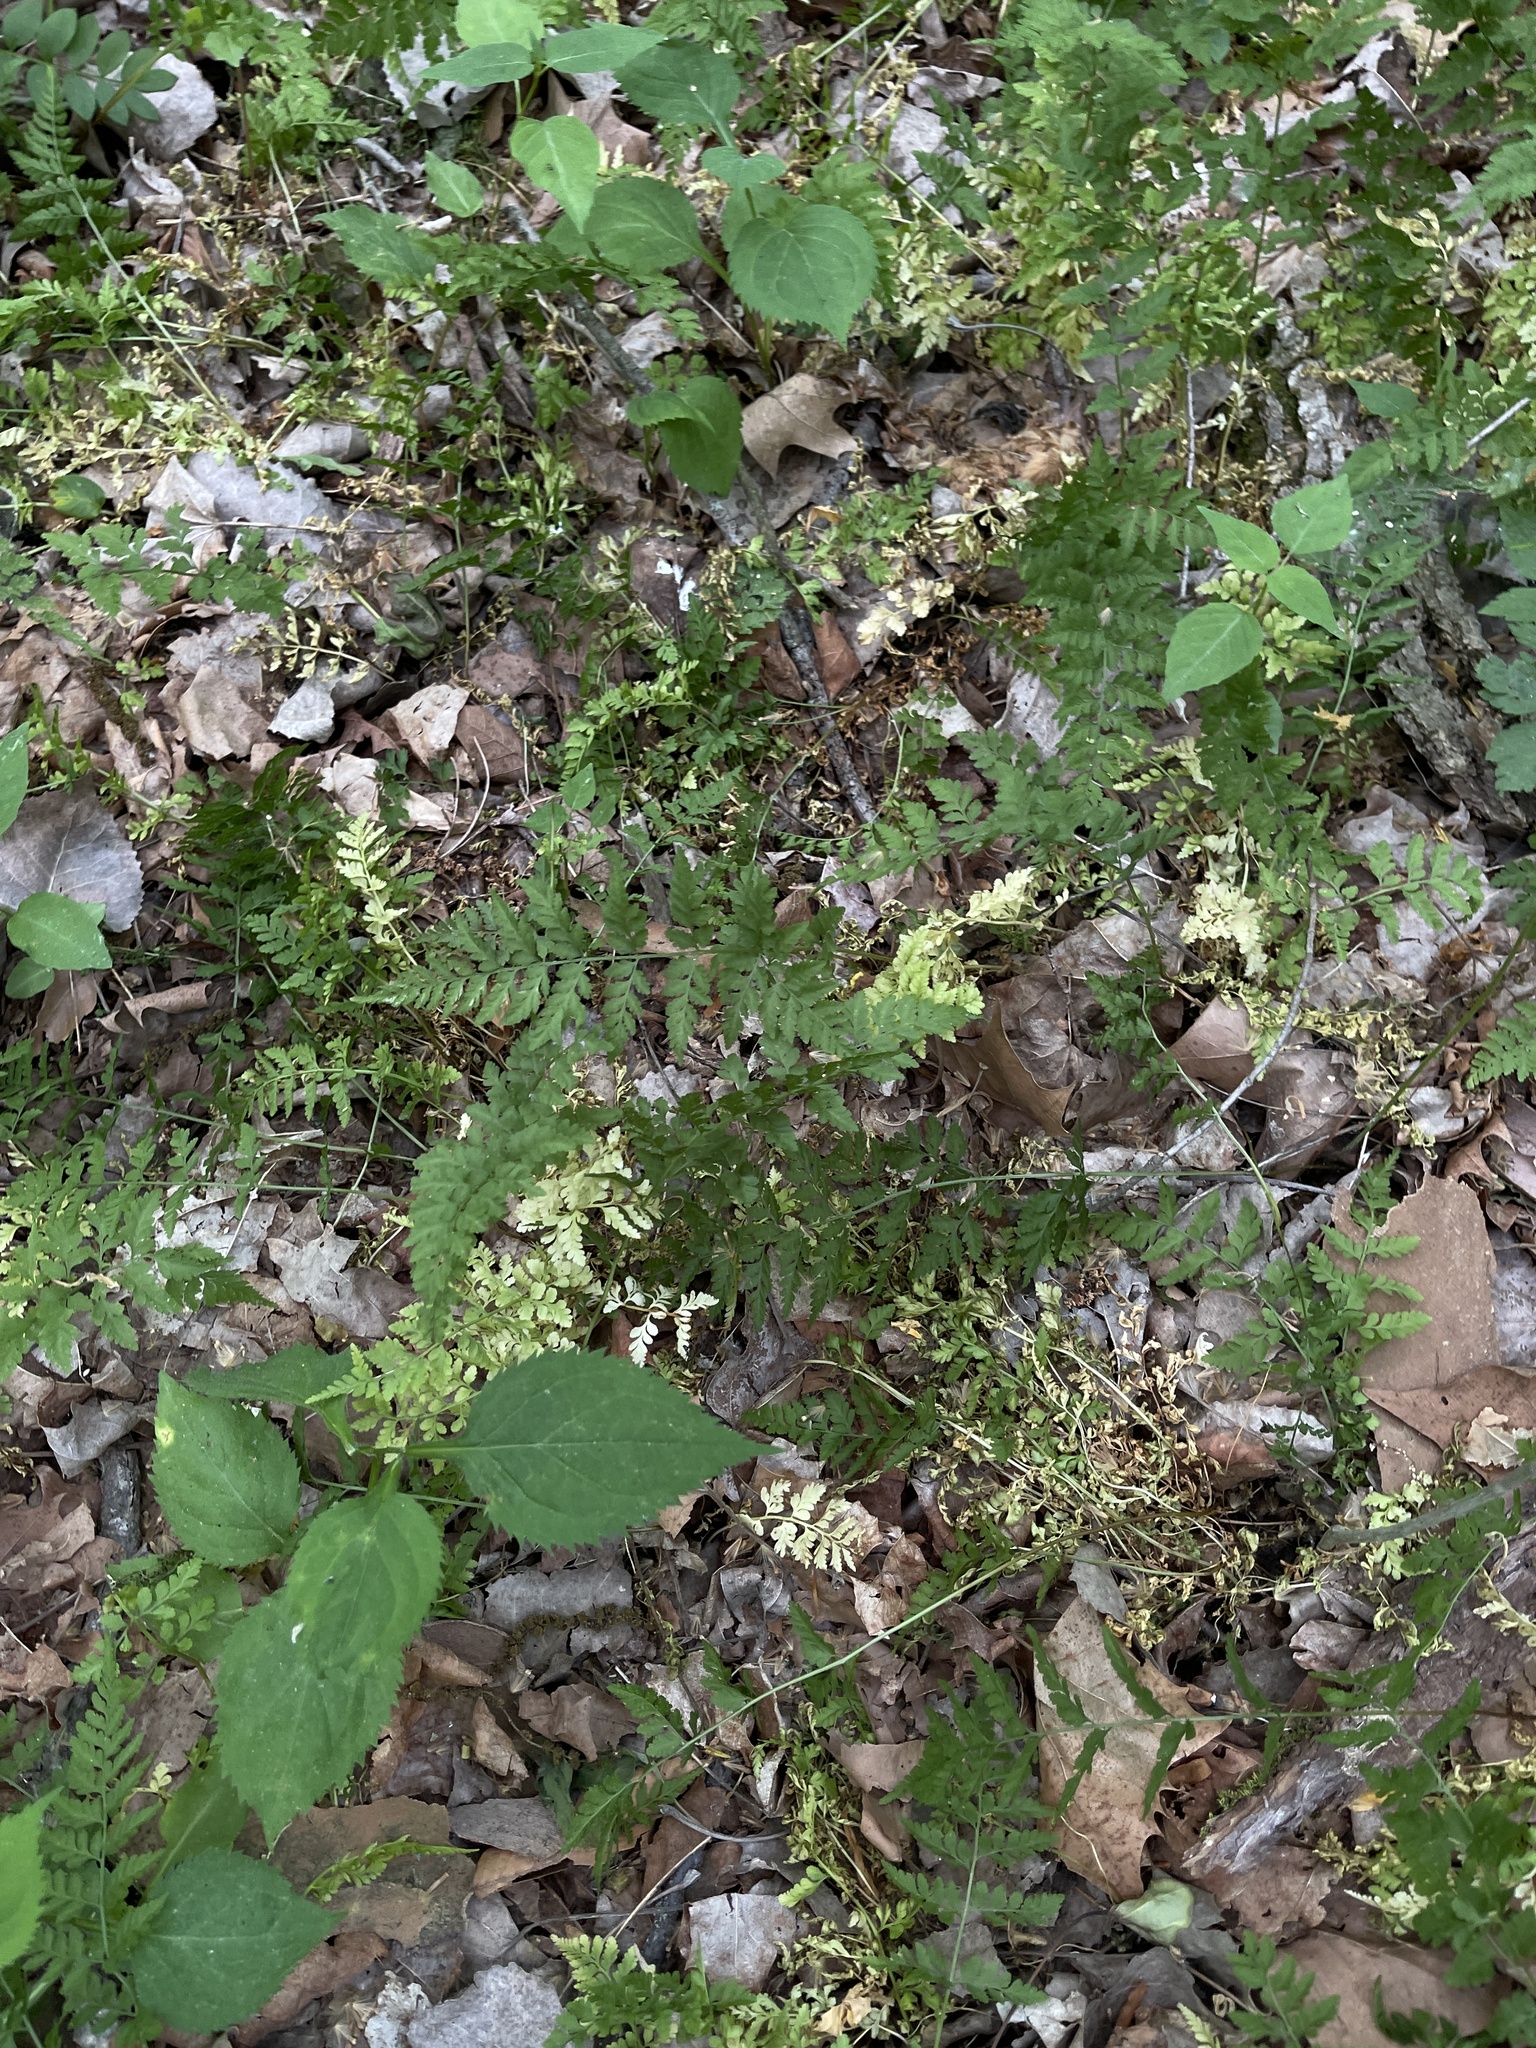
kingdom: Plantae
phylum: Tracheophyta
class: Polypodiopsida
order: Polypodiales
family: Cystopteridaceae
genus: Cystopteris
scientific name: Cystopteris protrusa
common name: Lowland brittle fern
